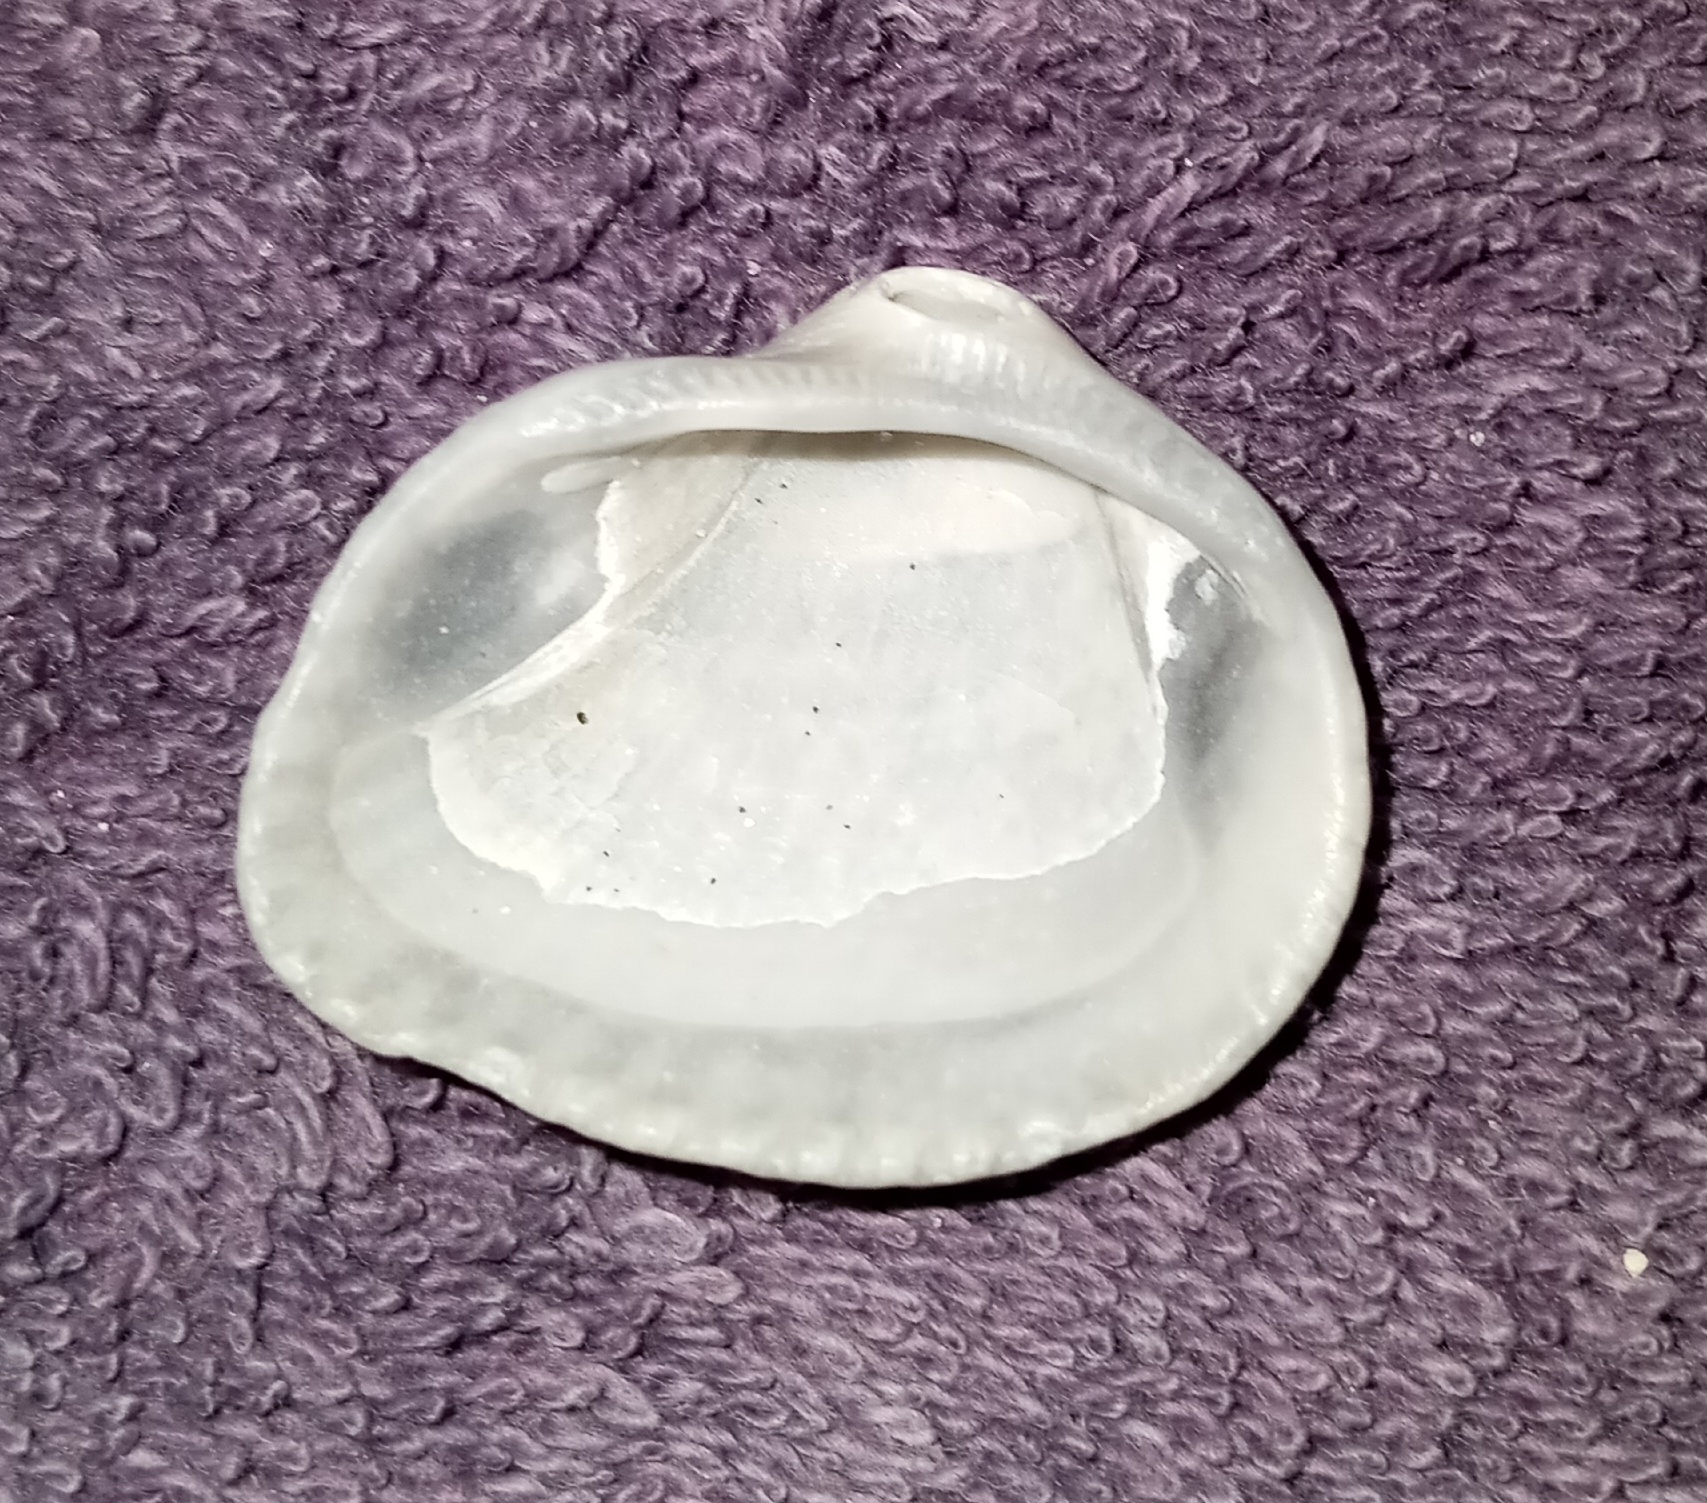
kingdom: Animalia
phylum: Mollusca
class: Bivalvia
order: Arcida
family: Noetiidae
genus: Noetia
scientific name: Noetia ponderosa
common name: Ponderous ark
